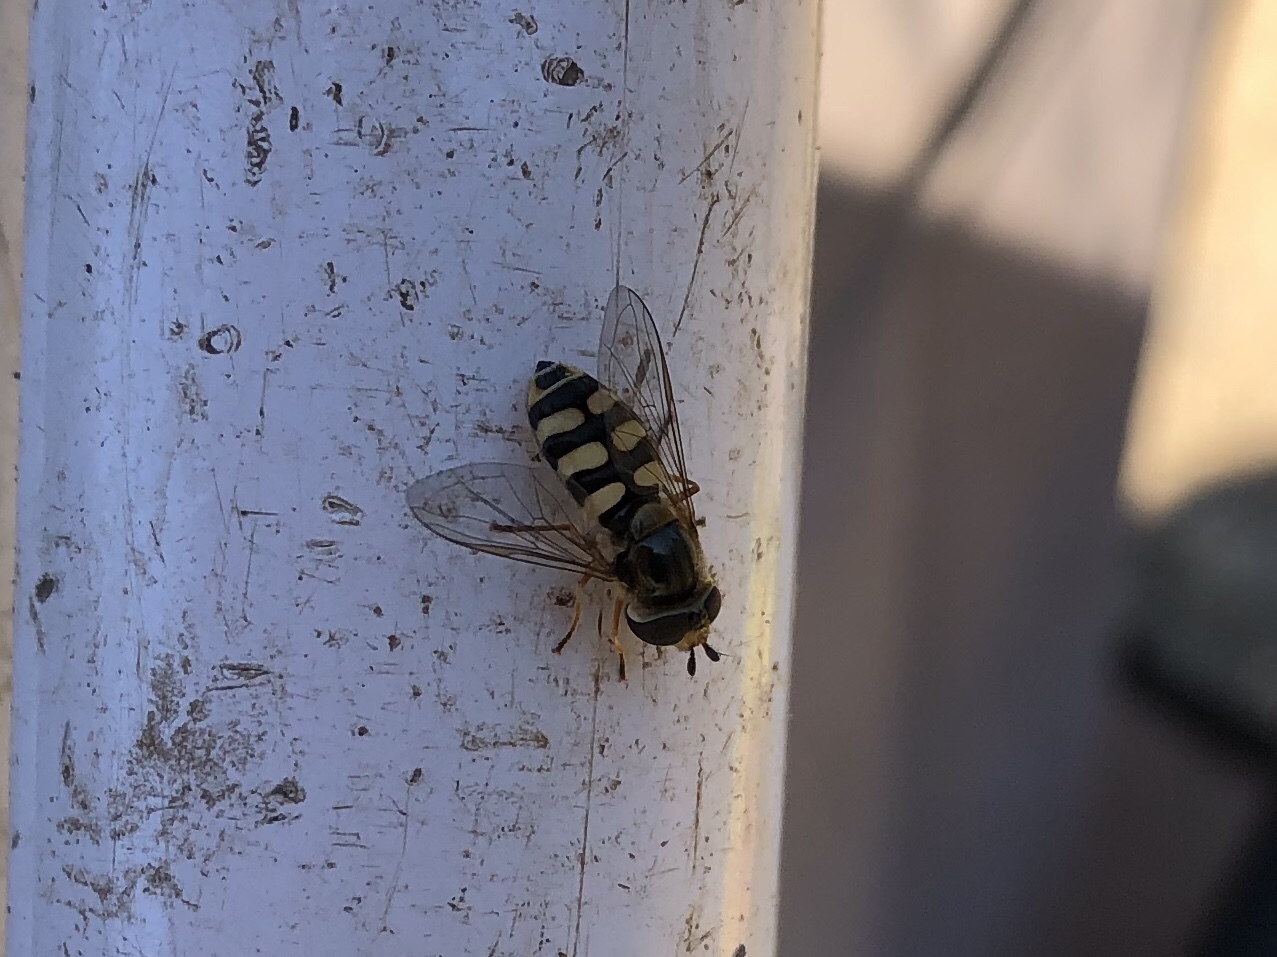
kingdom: Animalia
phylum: Arthropoda
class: Insecta
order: Diptera
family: Syrphidae
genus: Eupeodes
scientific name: Eupeodes corollae
